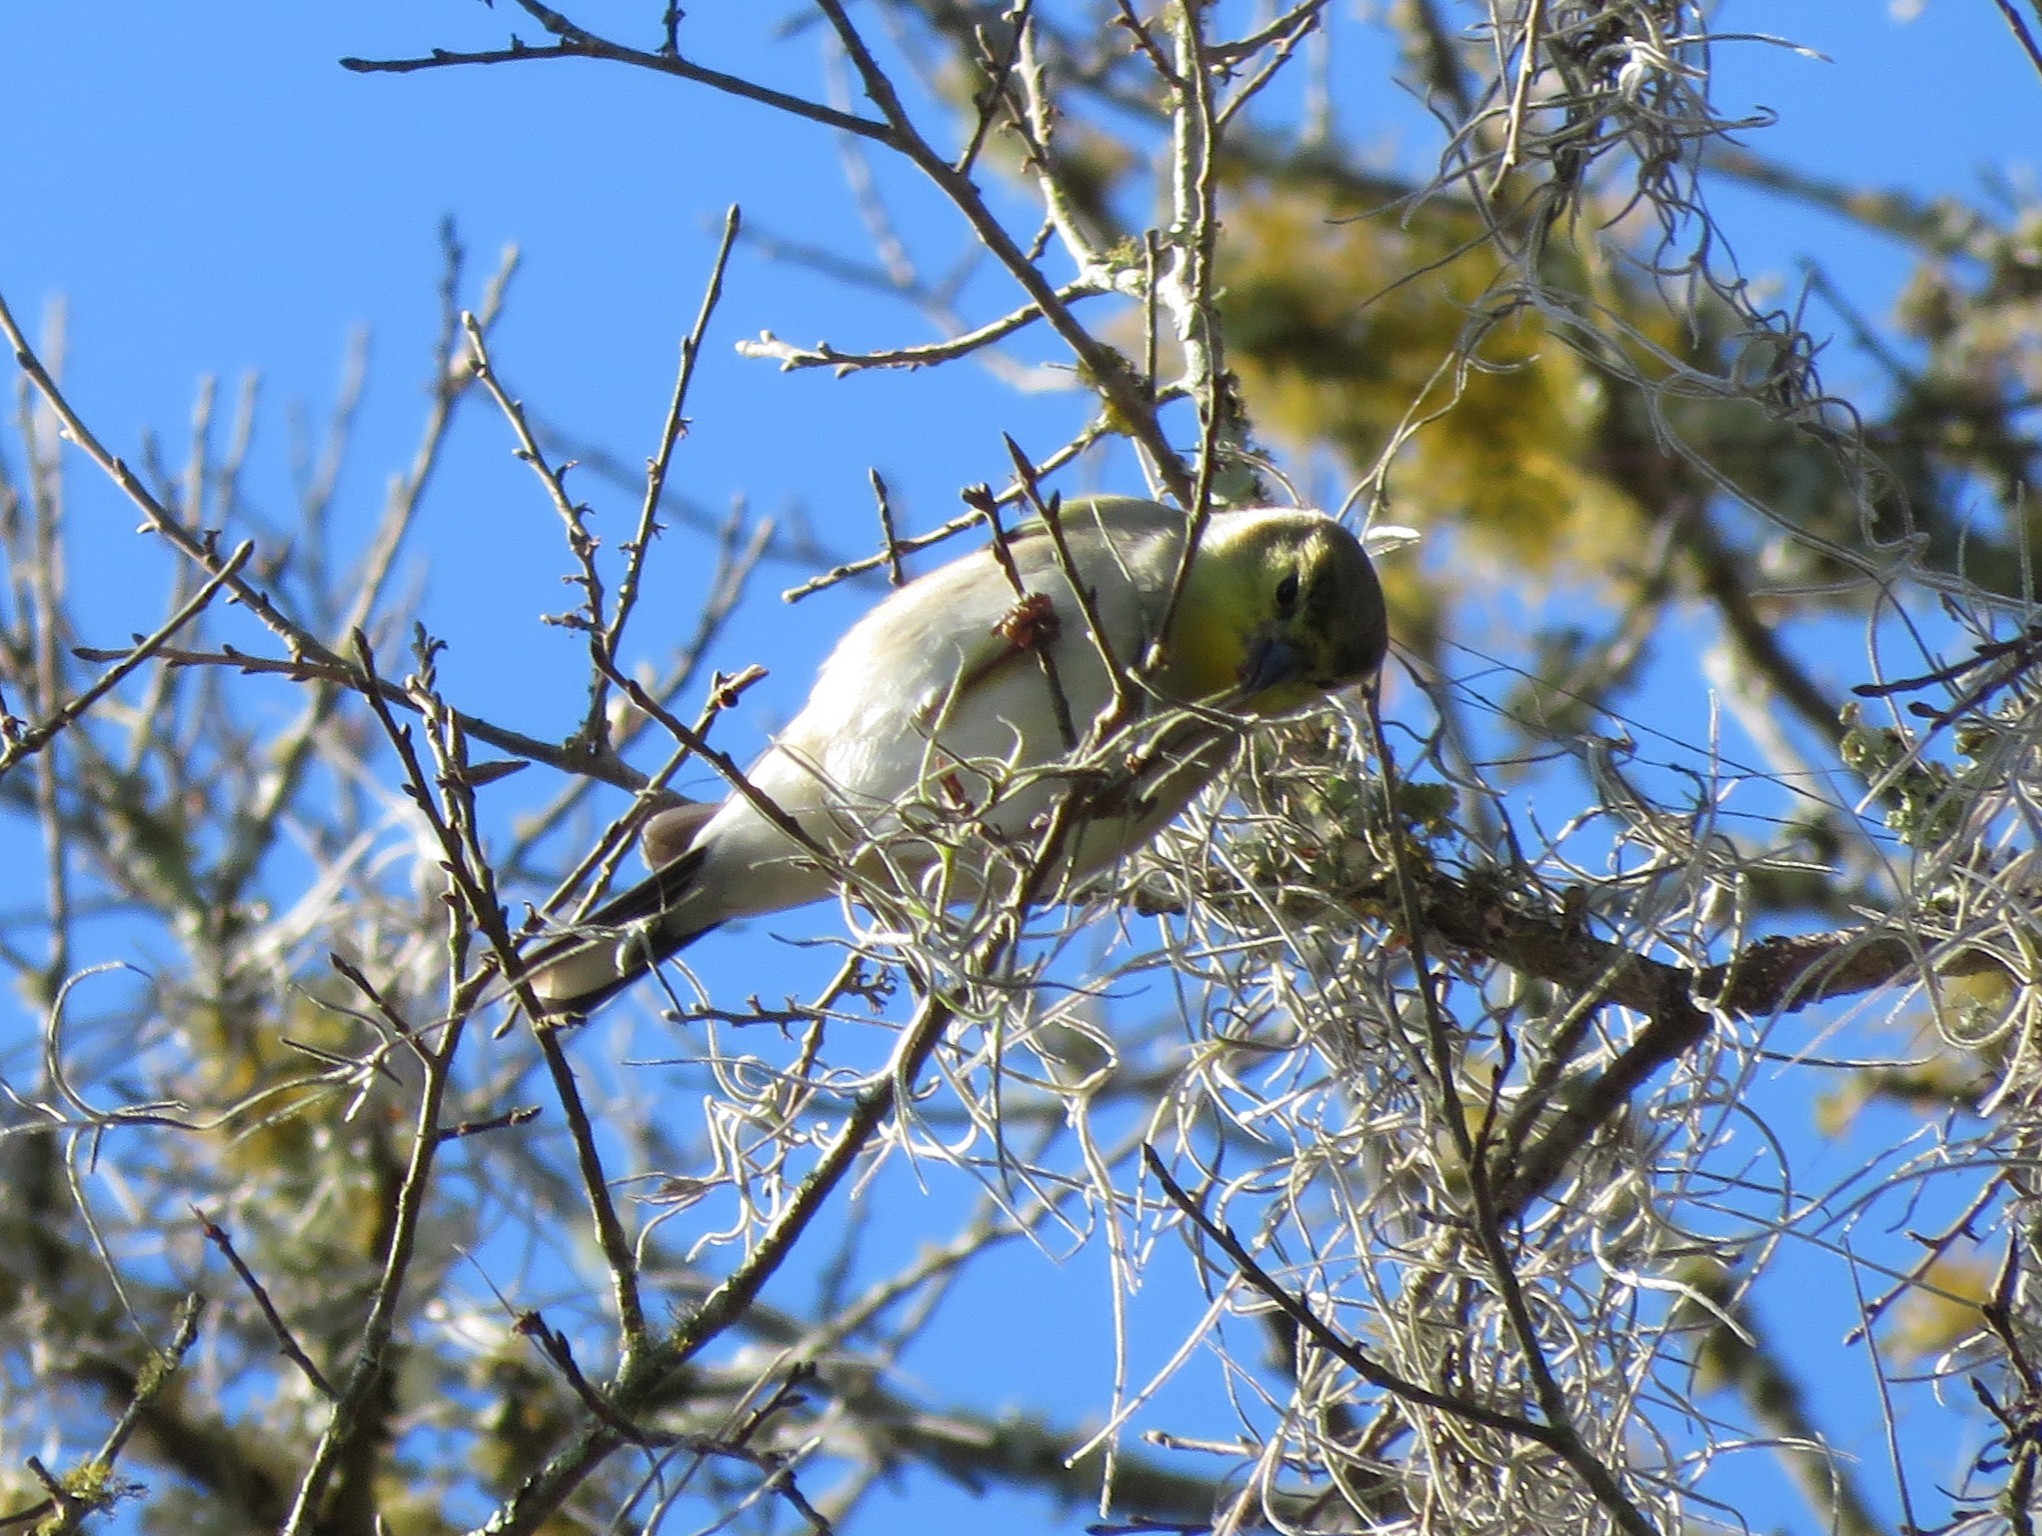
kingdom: Animalia
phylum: Chordata
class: Aves
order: Passeriformes
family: Fringillidae
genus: Spinus
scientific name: Spinus tristis
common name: American goldfinch
